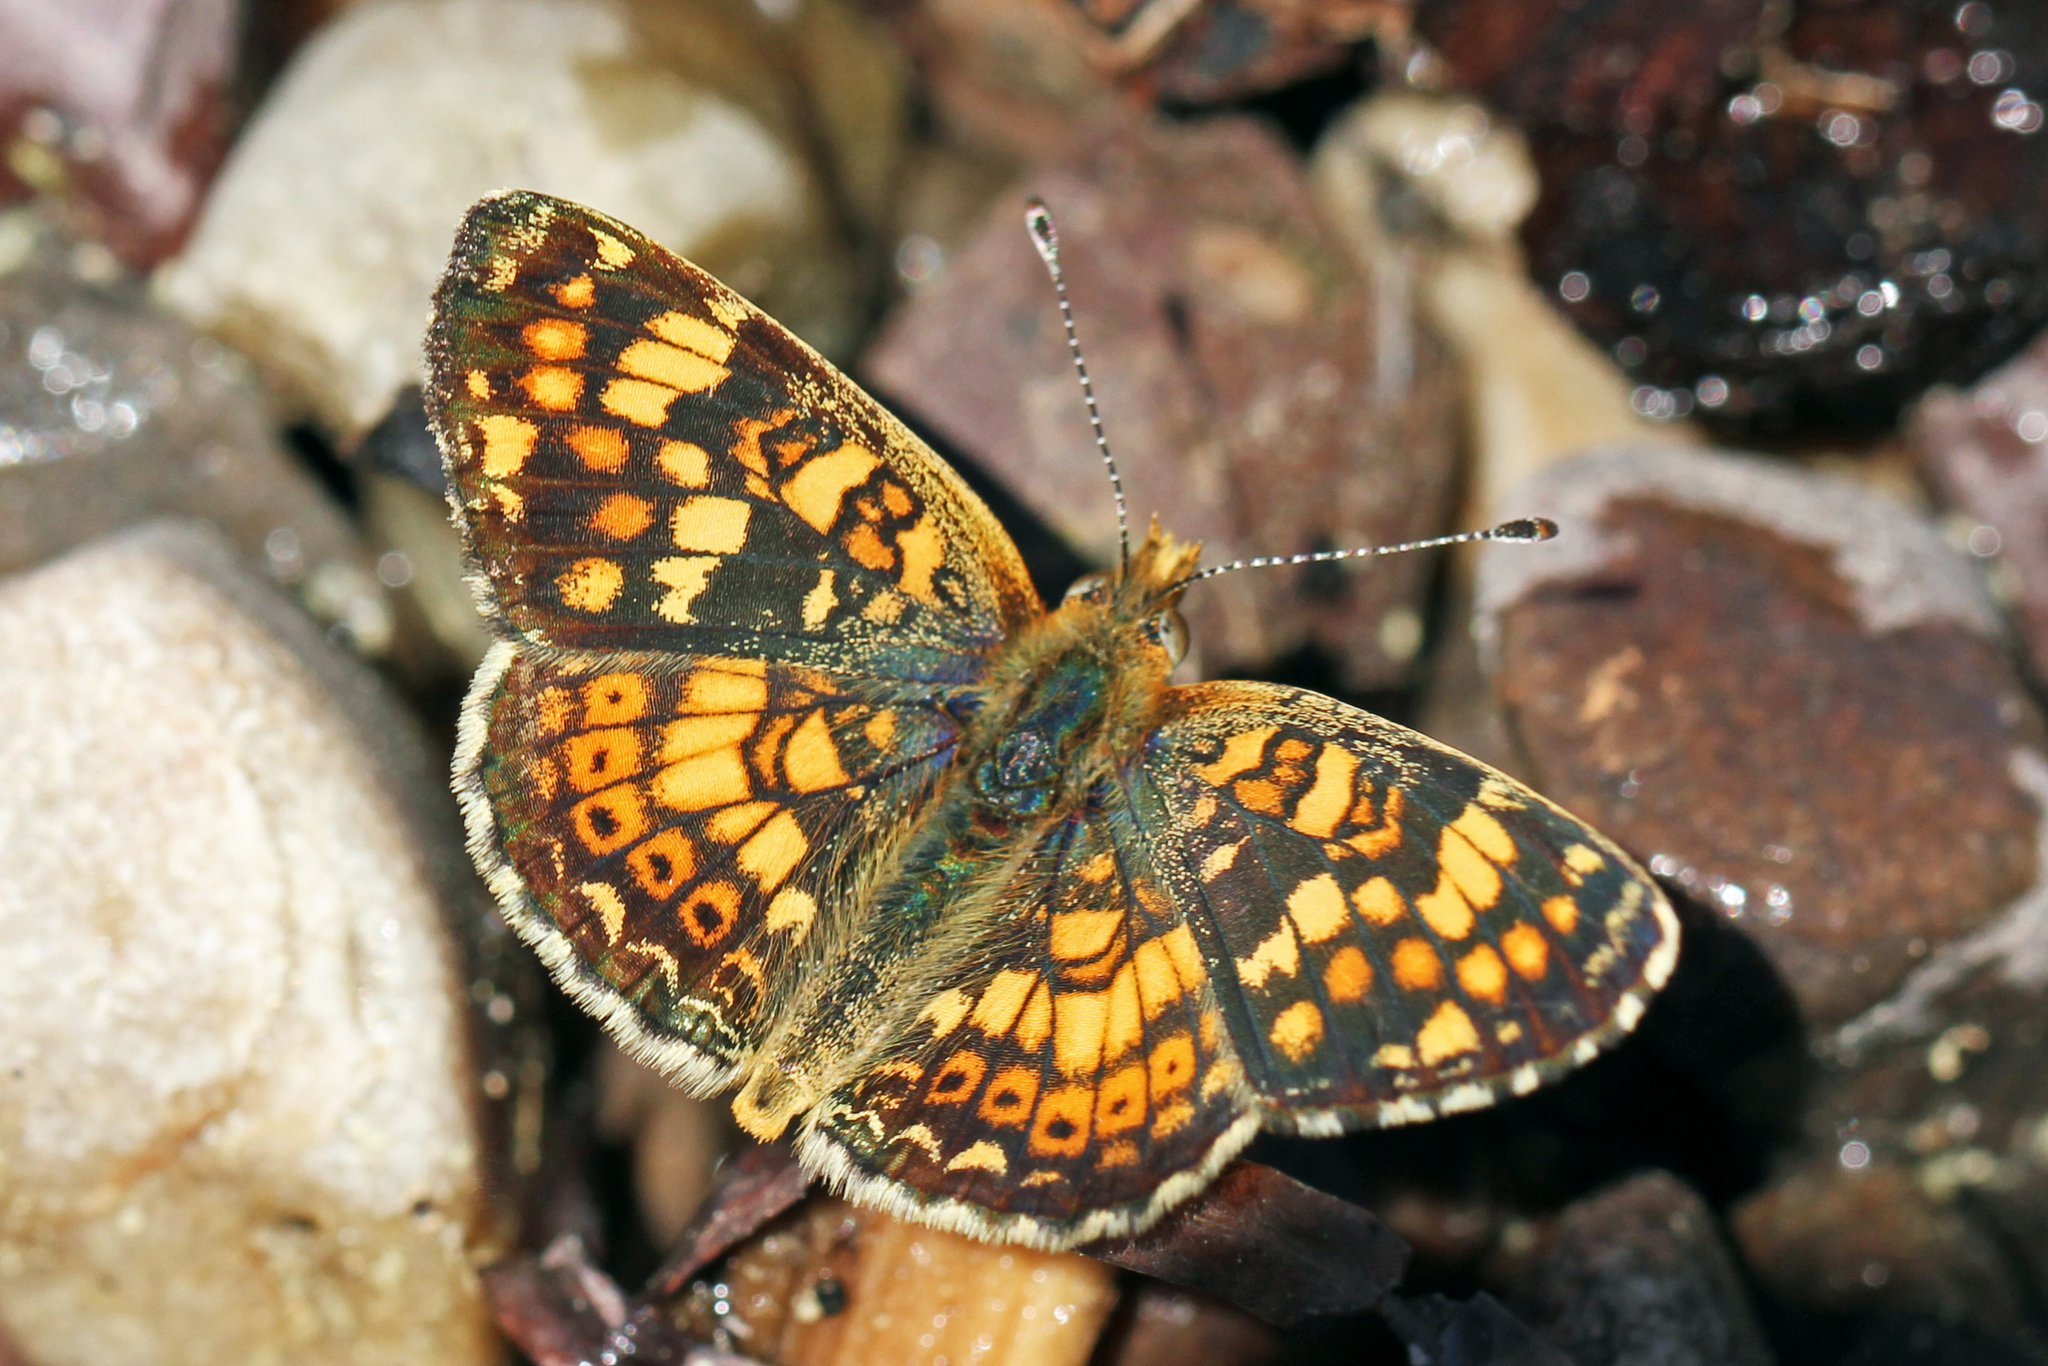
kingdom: Animalia
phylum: Arthropoda
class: Insecta
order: Lepidoptera
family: Nymphalidae
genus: Phyciodes
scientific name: Phyciodes tharos
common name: Pearl crescent
